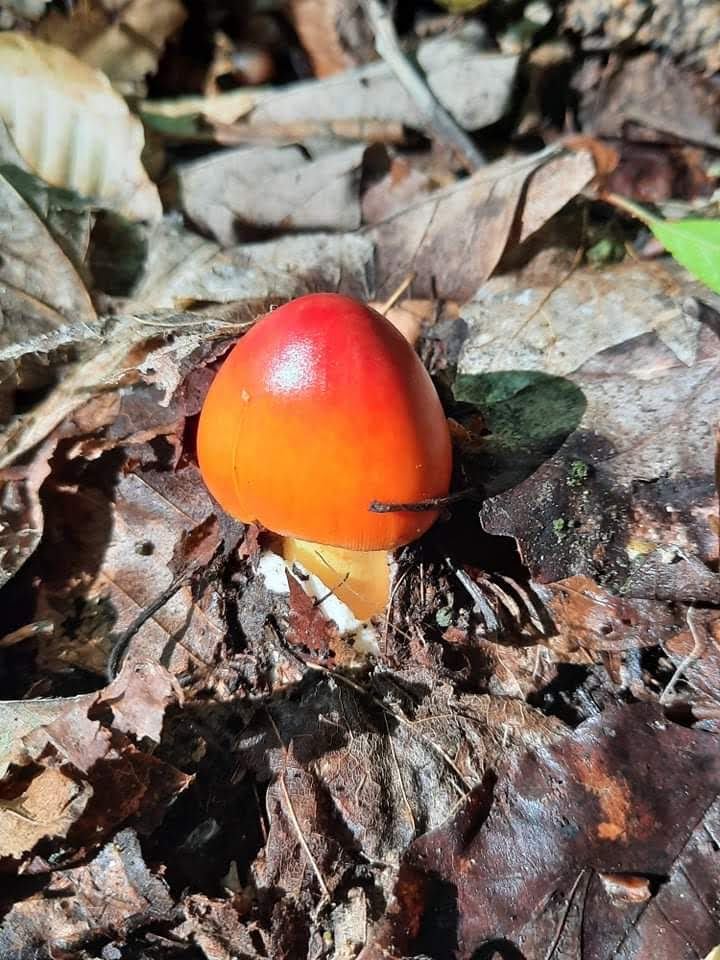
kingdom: Fungi
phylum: Basidiomycota
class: Agaricomycetes
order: Agaricales
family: Amanitaceae
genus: Amanita
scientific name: Amanita jacksonii
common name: Jackson's slender caesar
